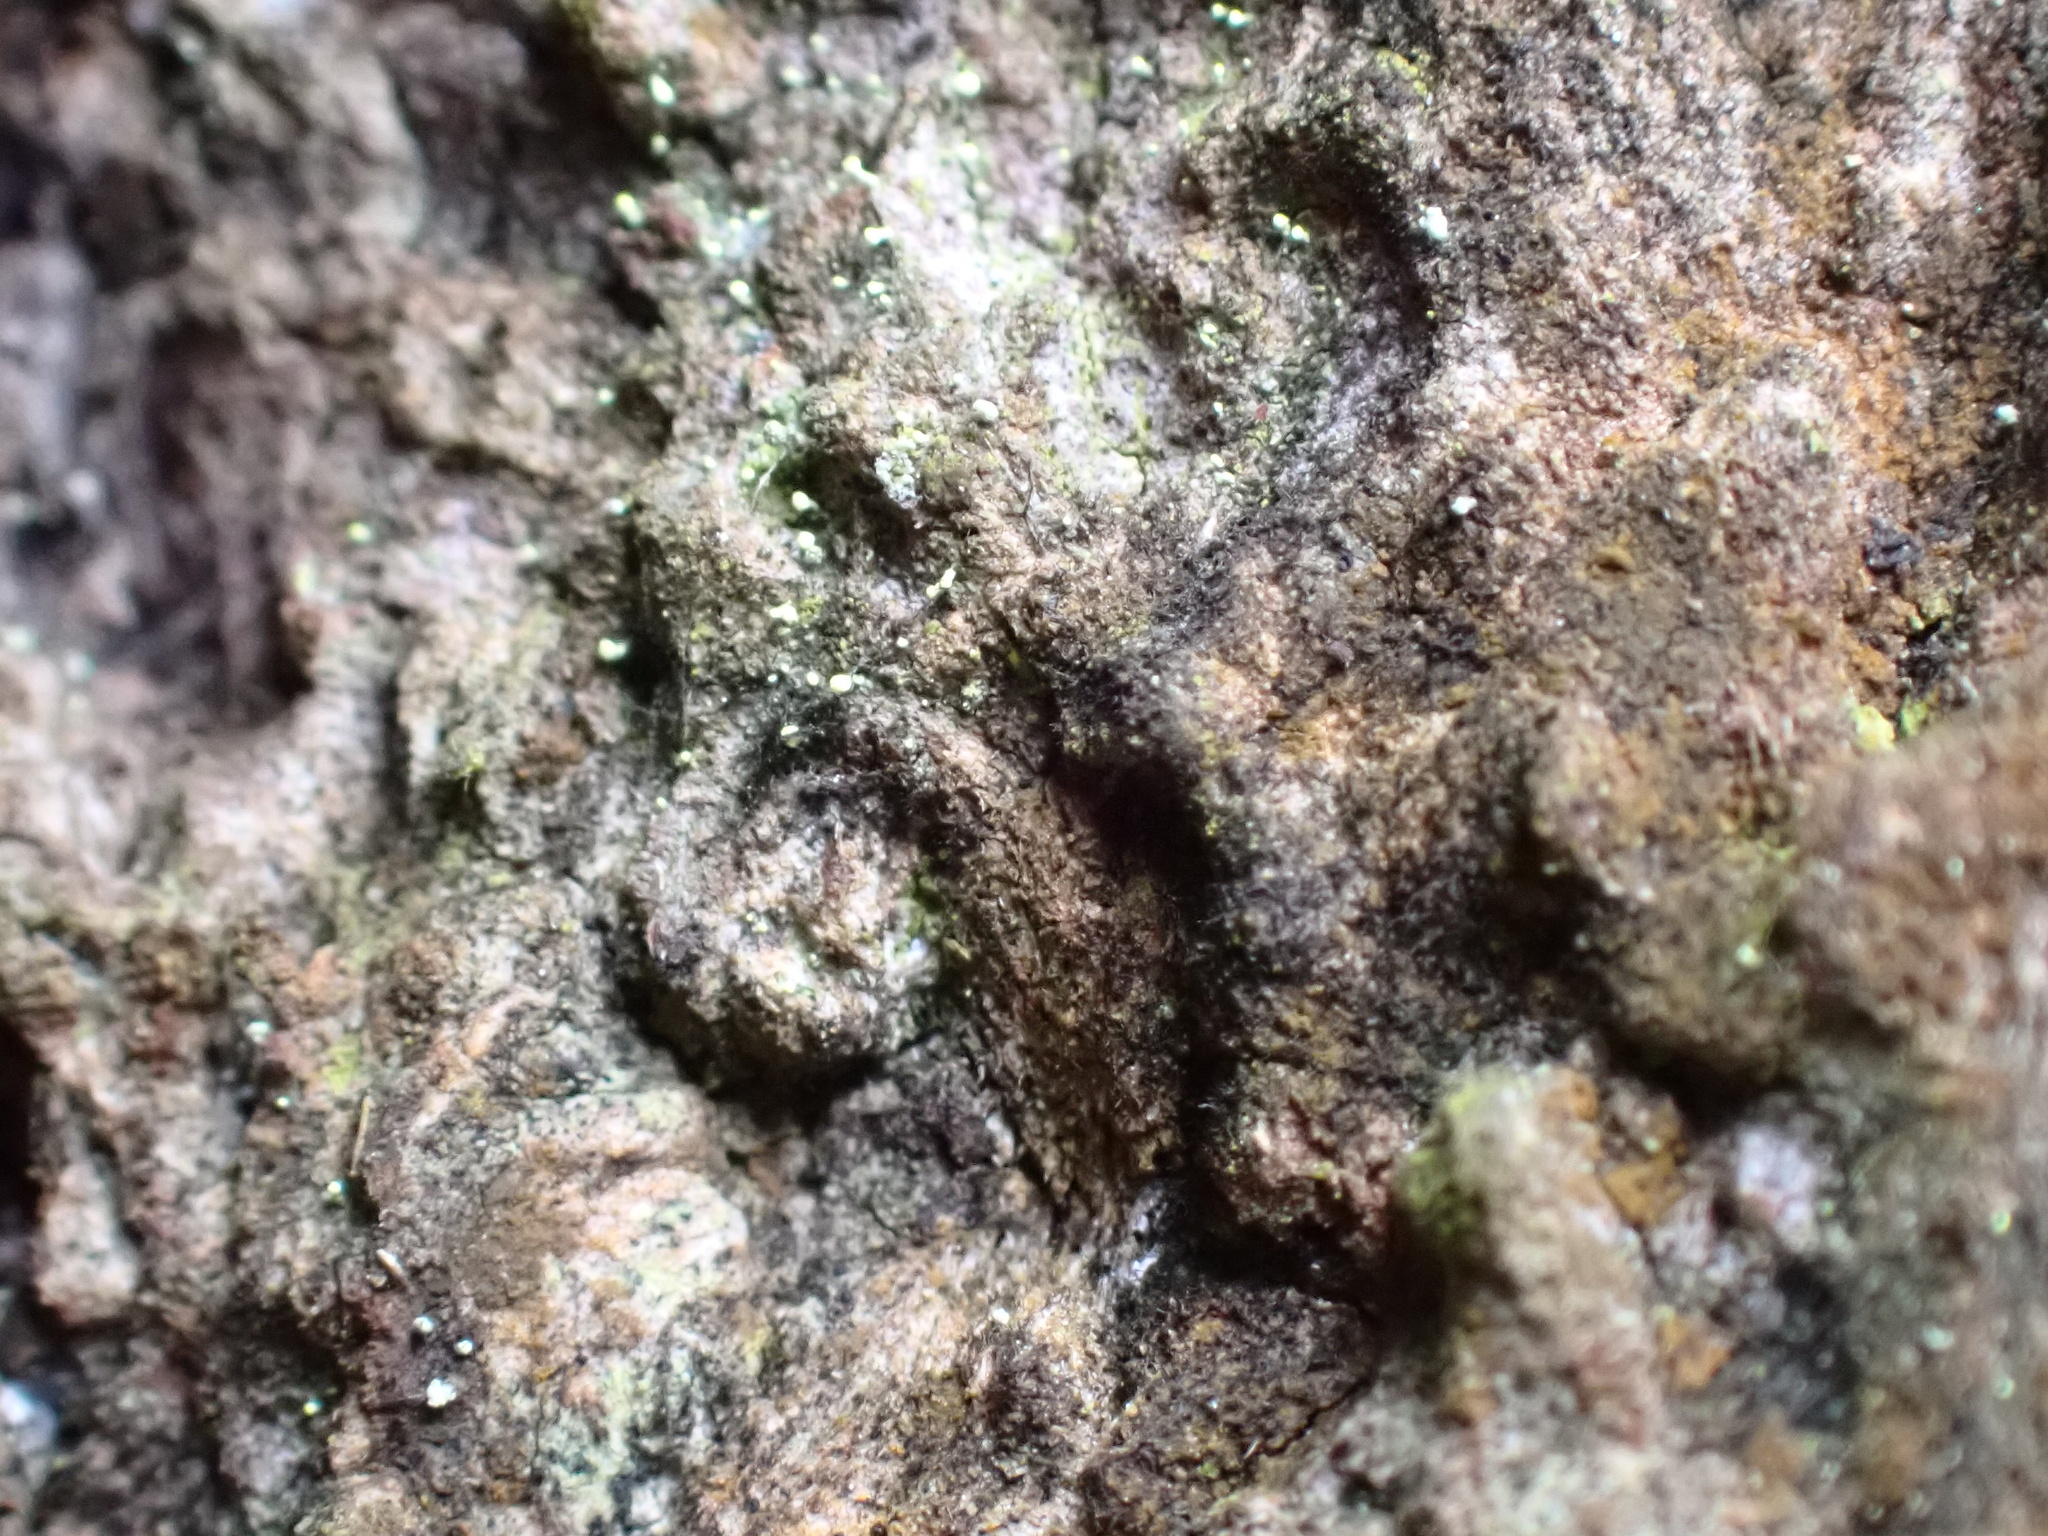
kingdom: Fungi
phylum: Ascomycota
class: Coniocybomycetes
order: Coniocybales
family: Coniocybaceae
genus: Chaenotheca
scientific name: Chaenotheca brachypoda
